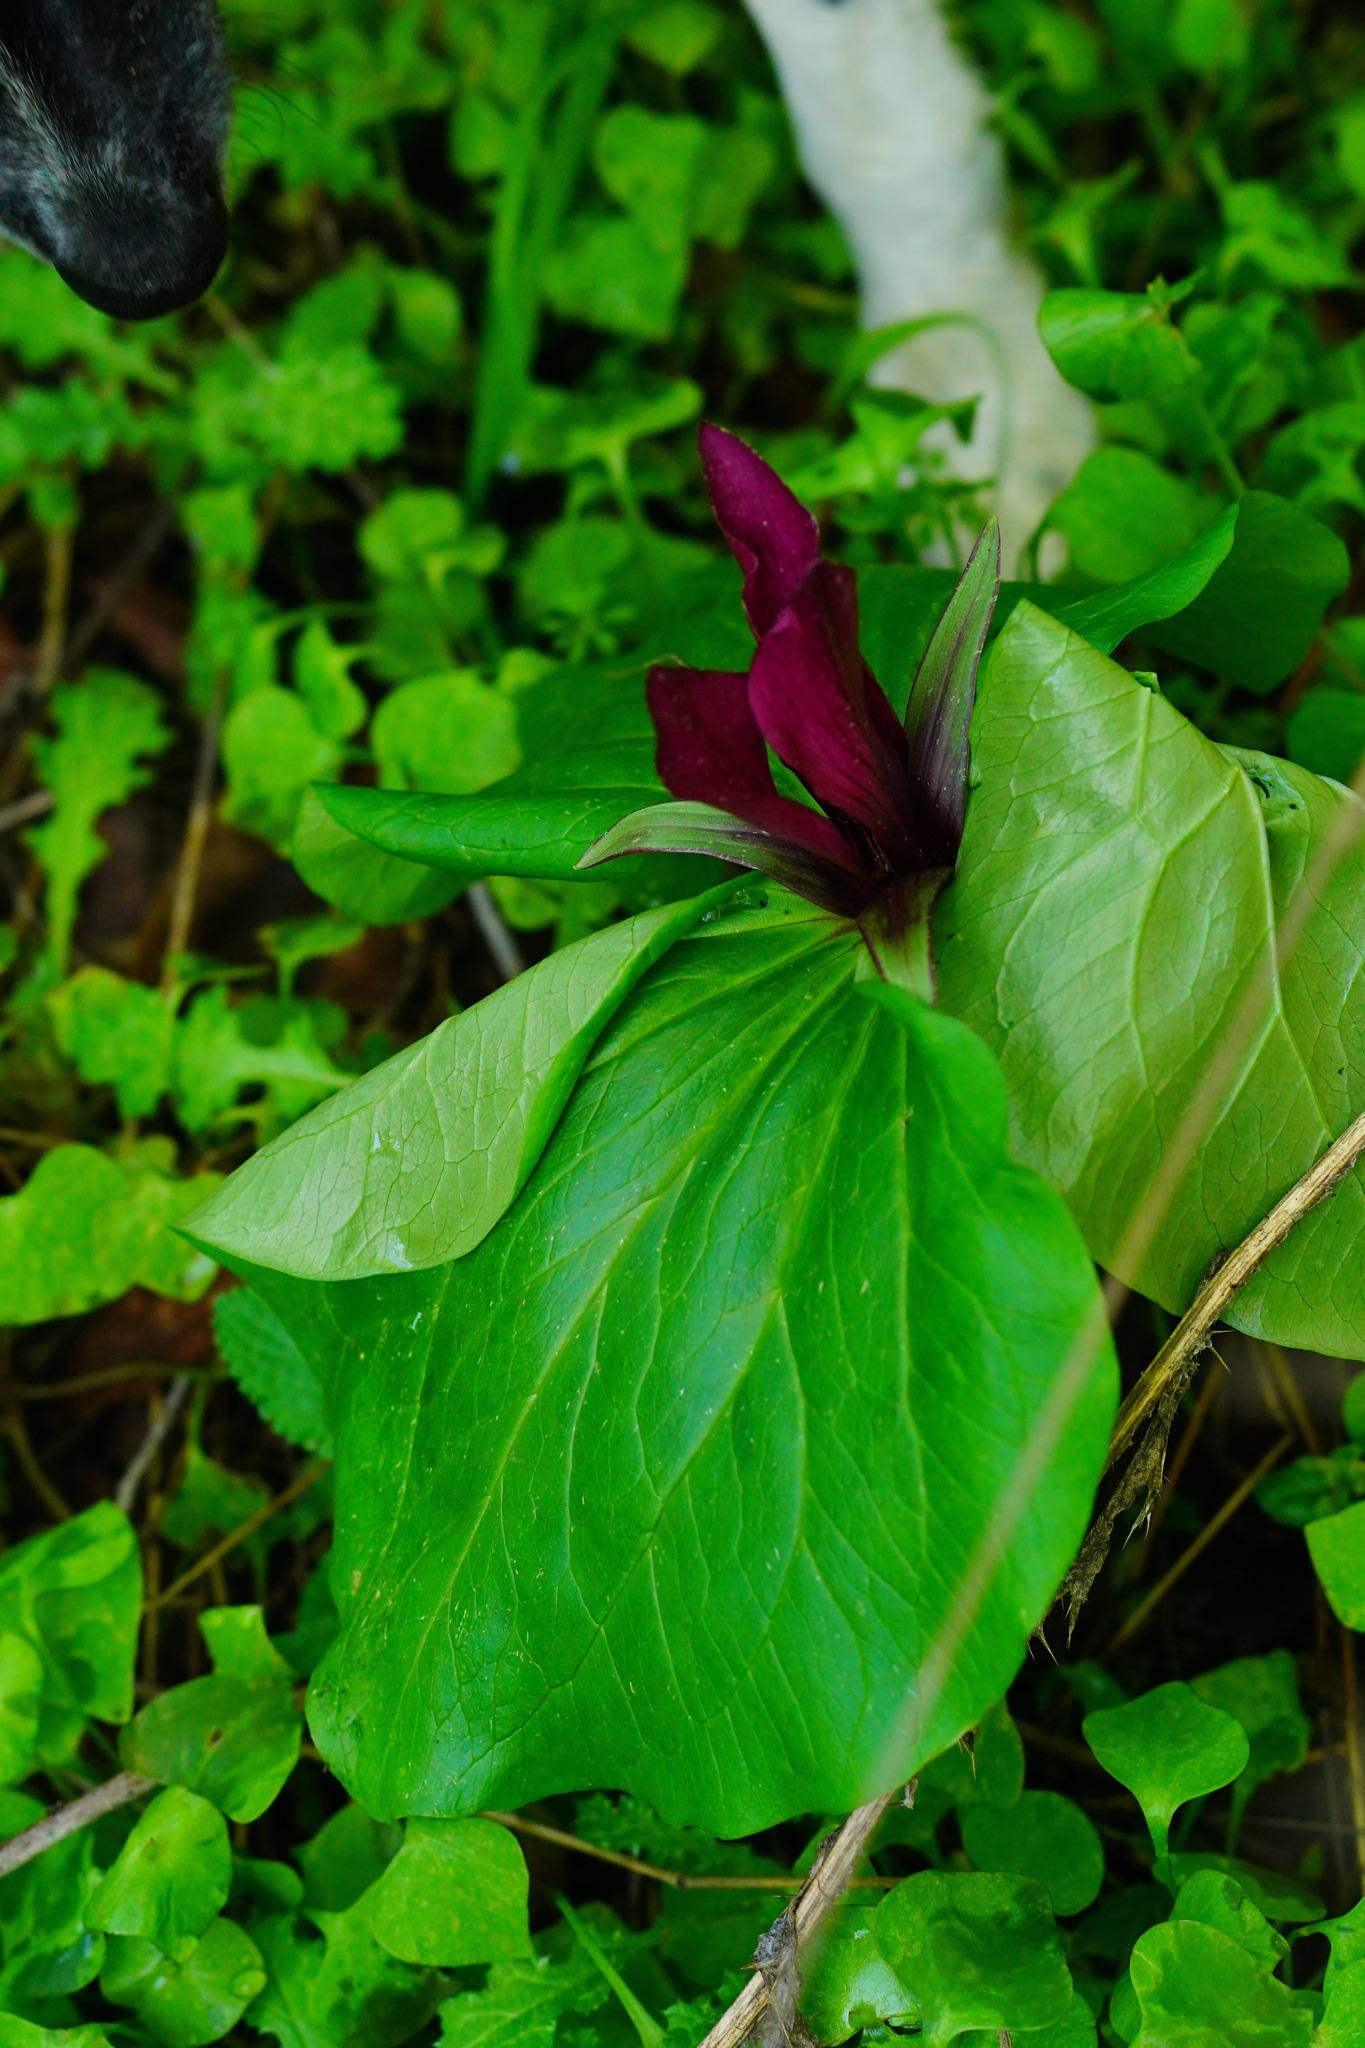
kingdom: Plantae
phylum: Tracheophyta
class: Liliopsida
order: Liliales
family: Melanthiaceae
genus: Trillium
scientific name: Trillium chloropetalum
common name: Giant trillium
